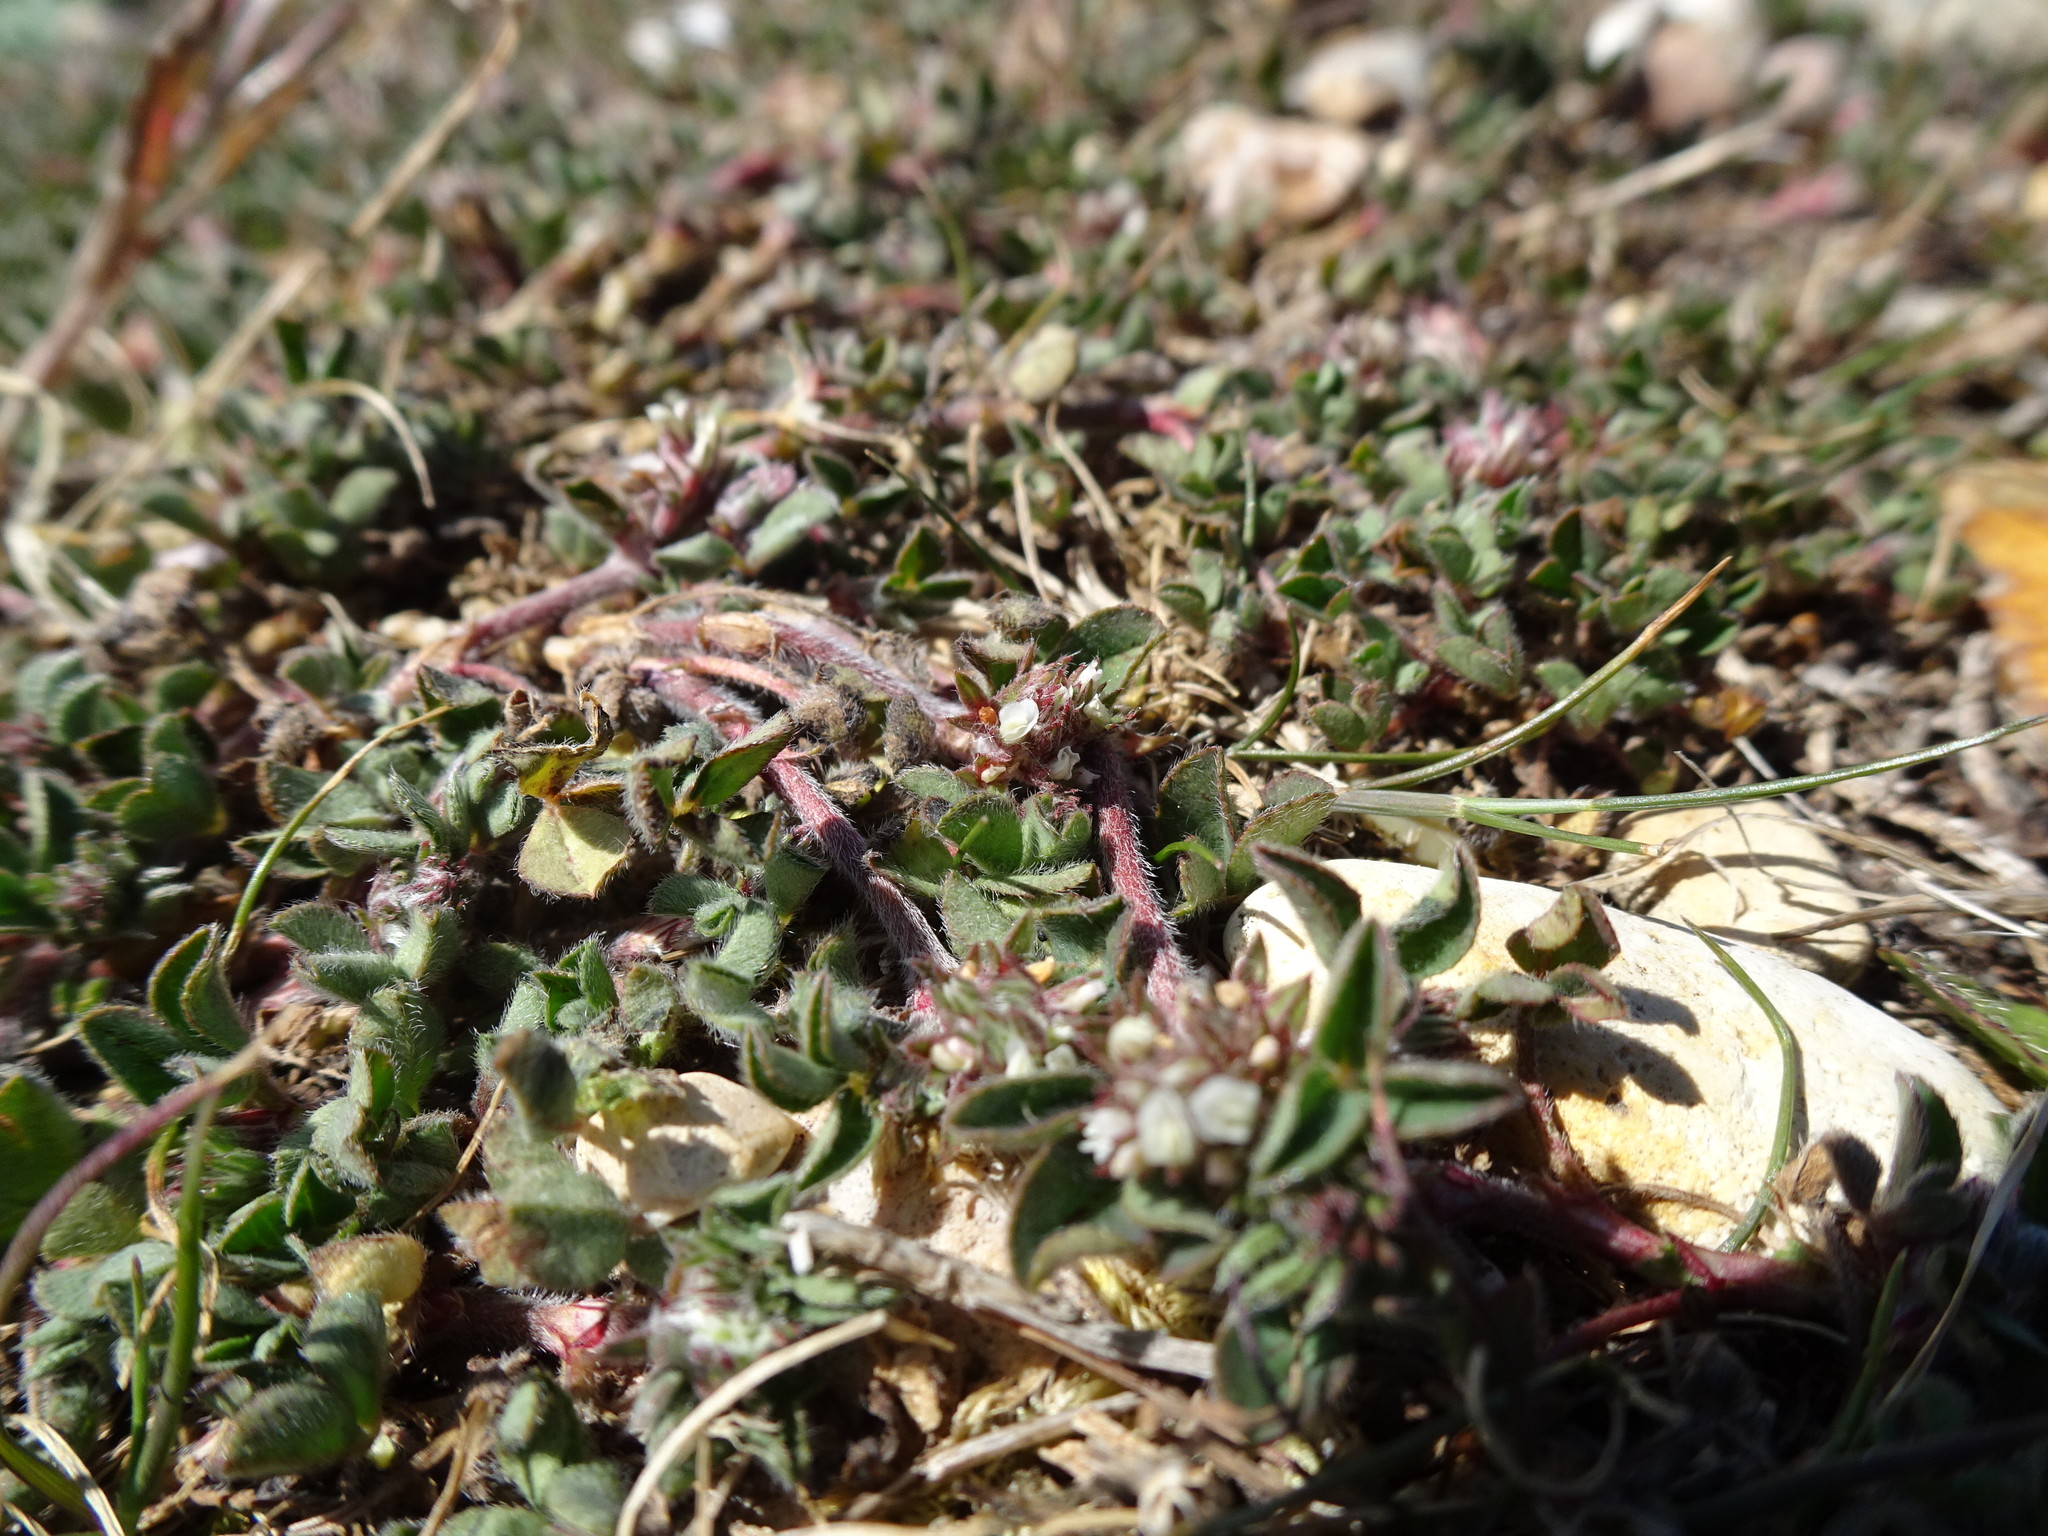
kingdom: Plantae
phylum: Tracheophyta
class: Magnoliopsida
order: Fabales
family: Fabaceae
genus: Trifolium
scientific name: Trifolium striatum
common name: Knotted clover
